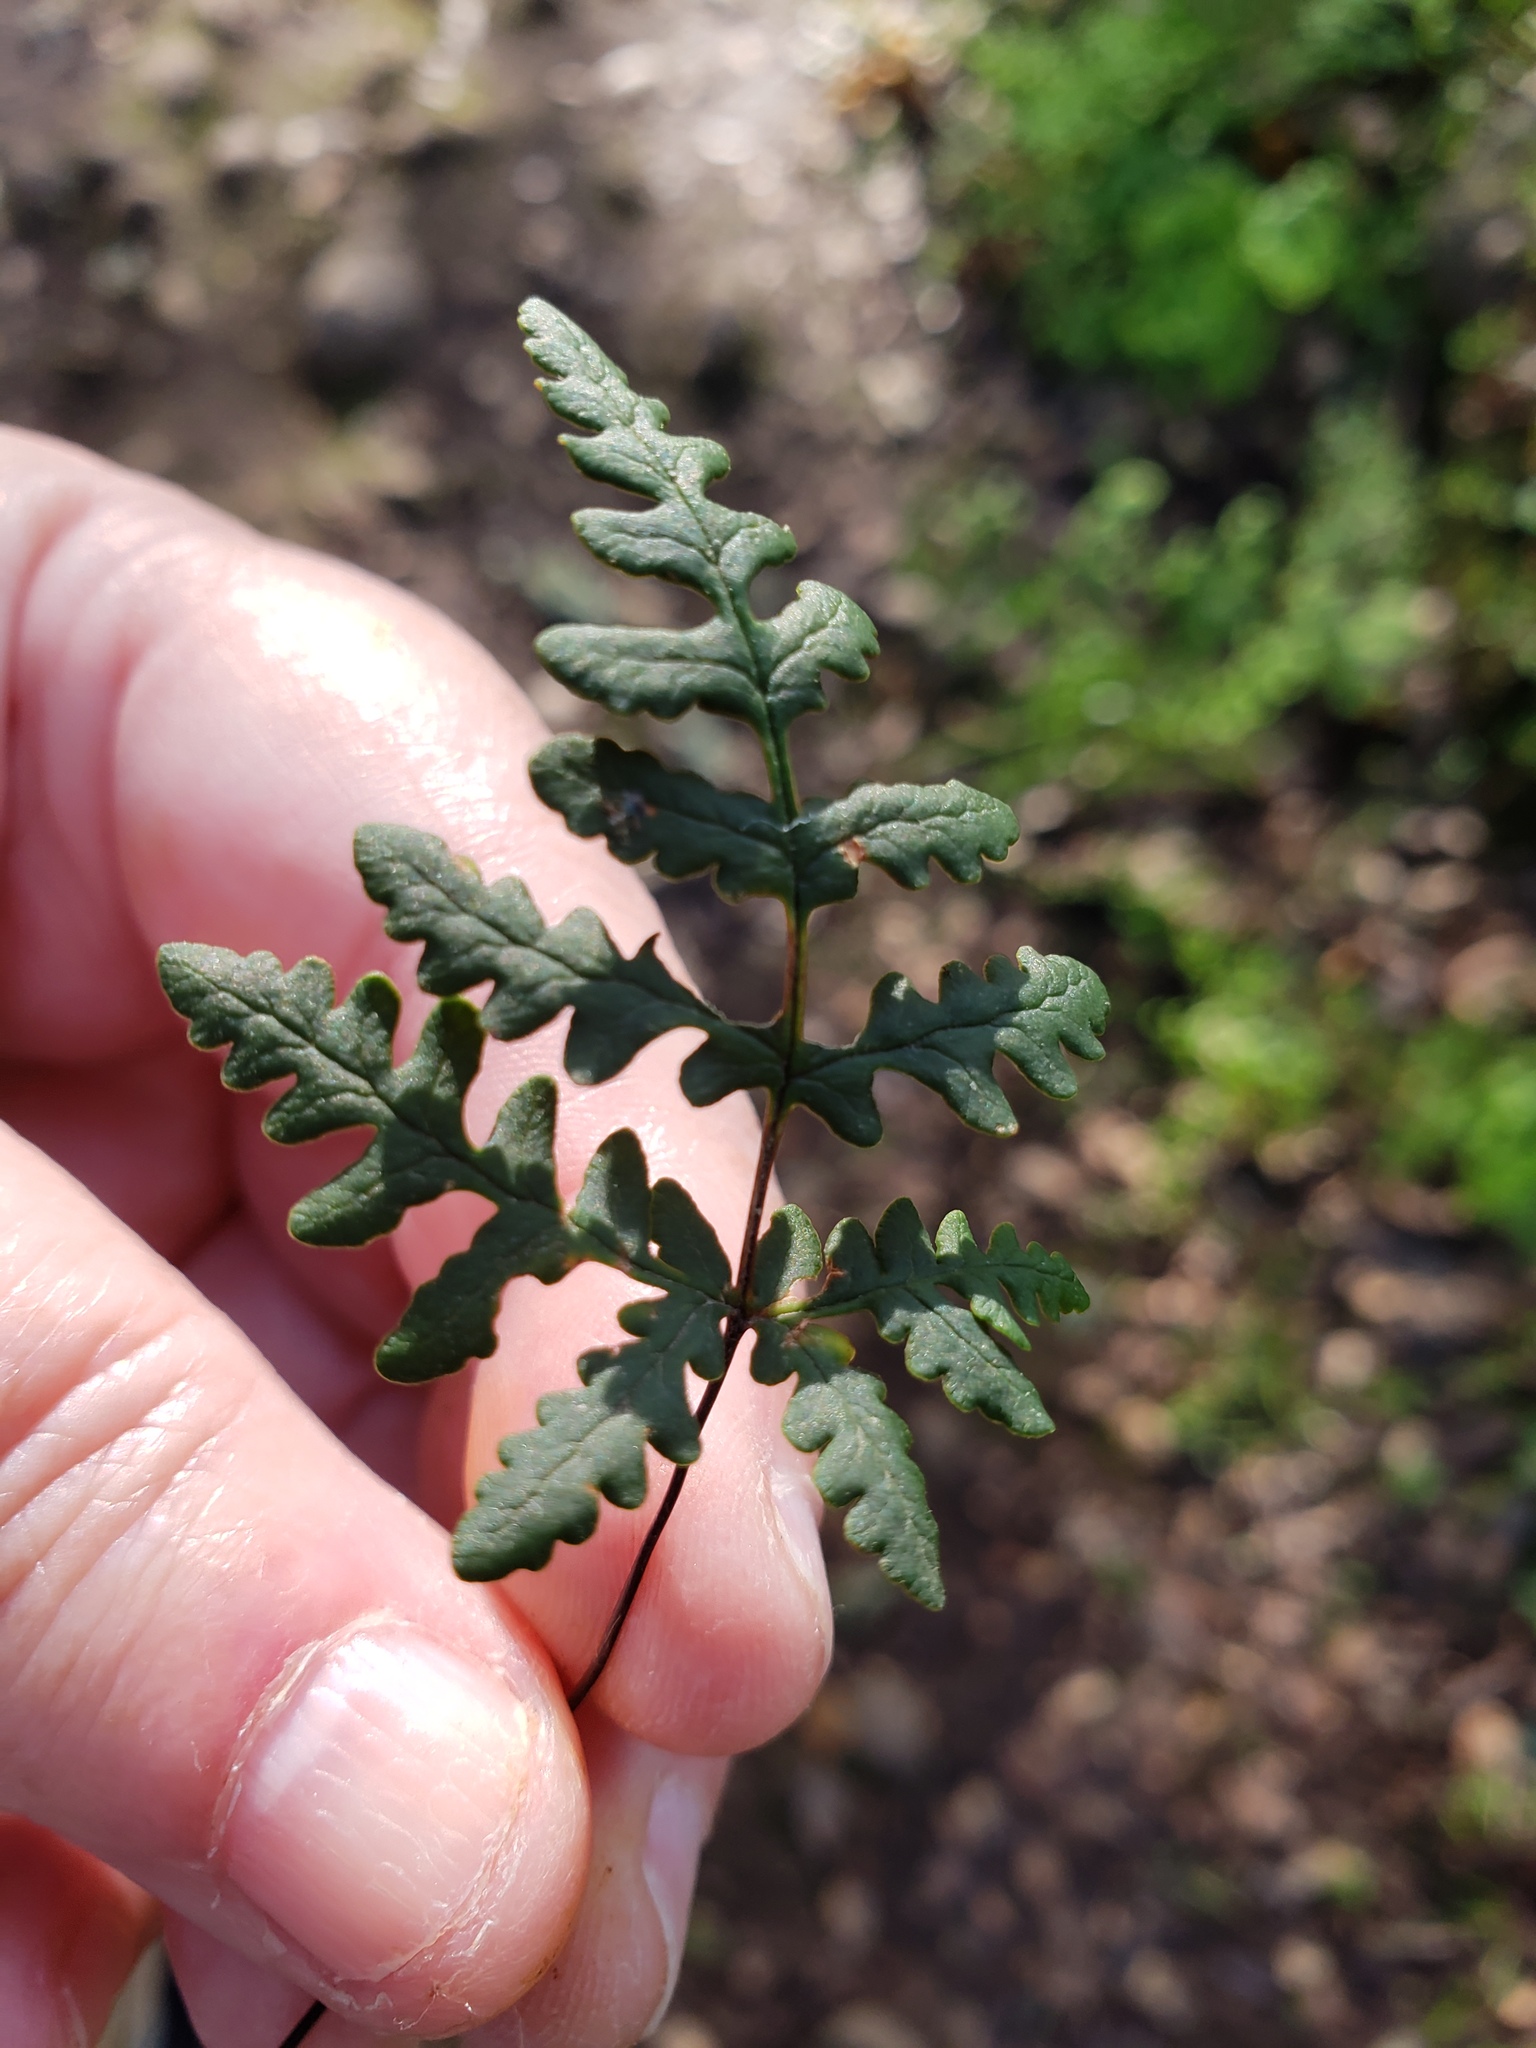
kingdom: Plantae
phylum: Tracheophyta
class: Polypodiopsida
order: Polypodiales
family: Pteridaceae
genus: Pentagramma
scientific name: Pentagramma triangularis
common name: Gold fern
